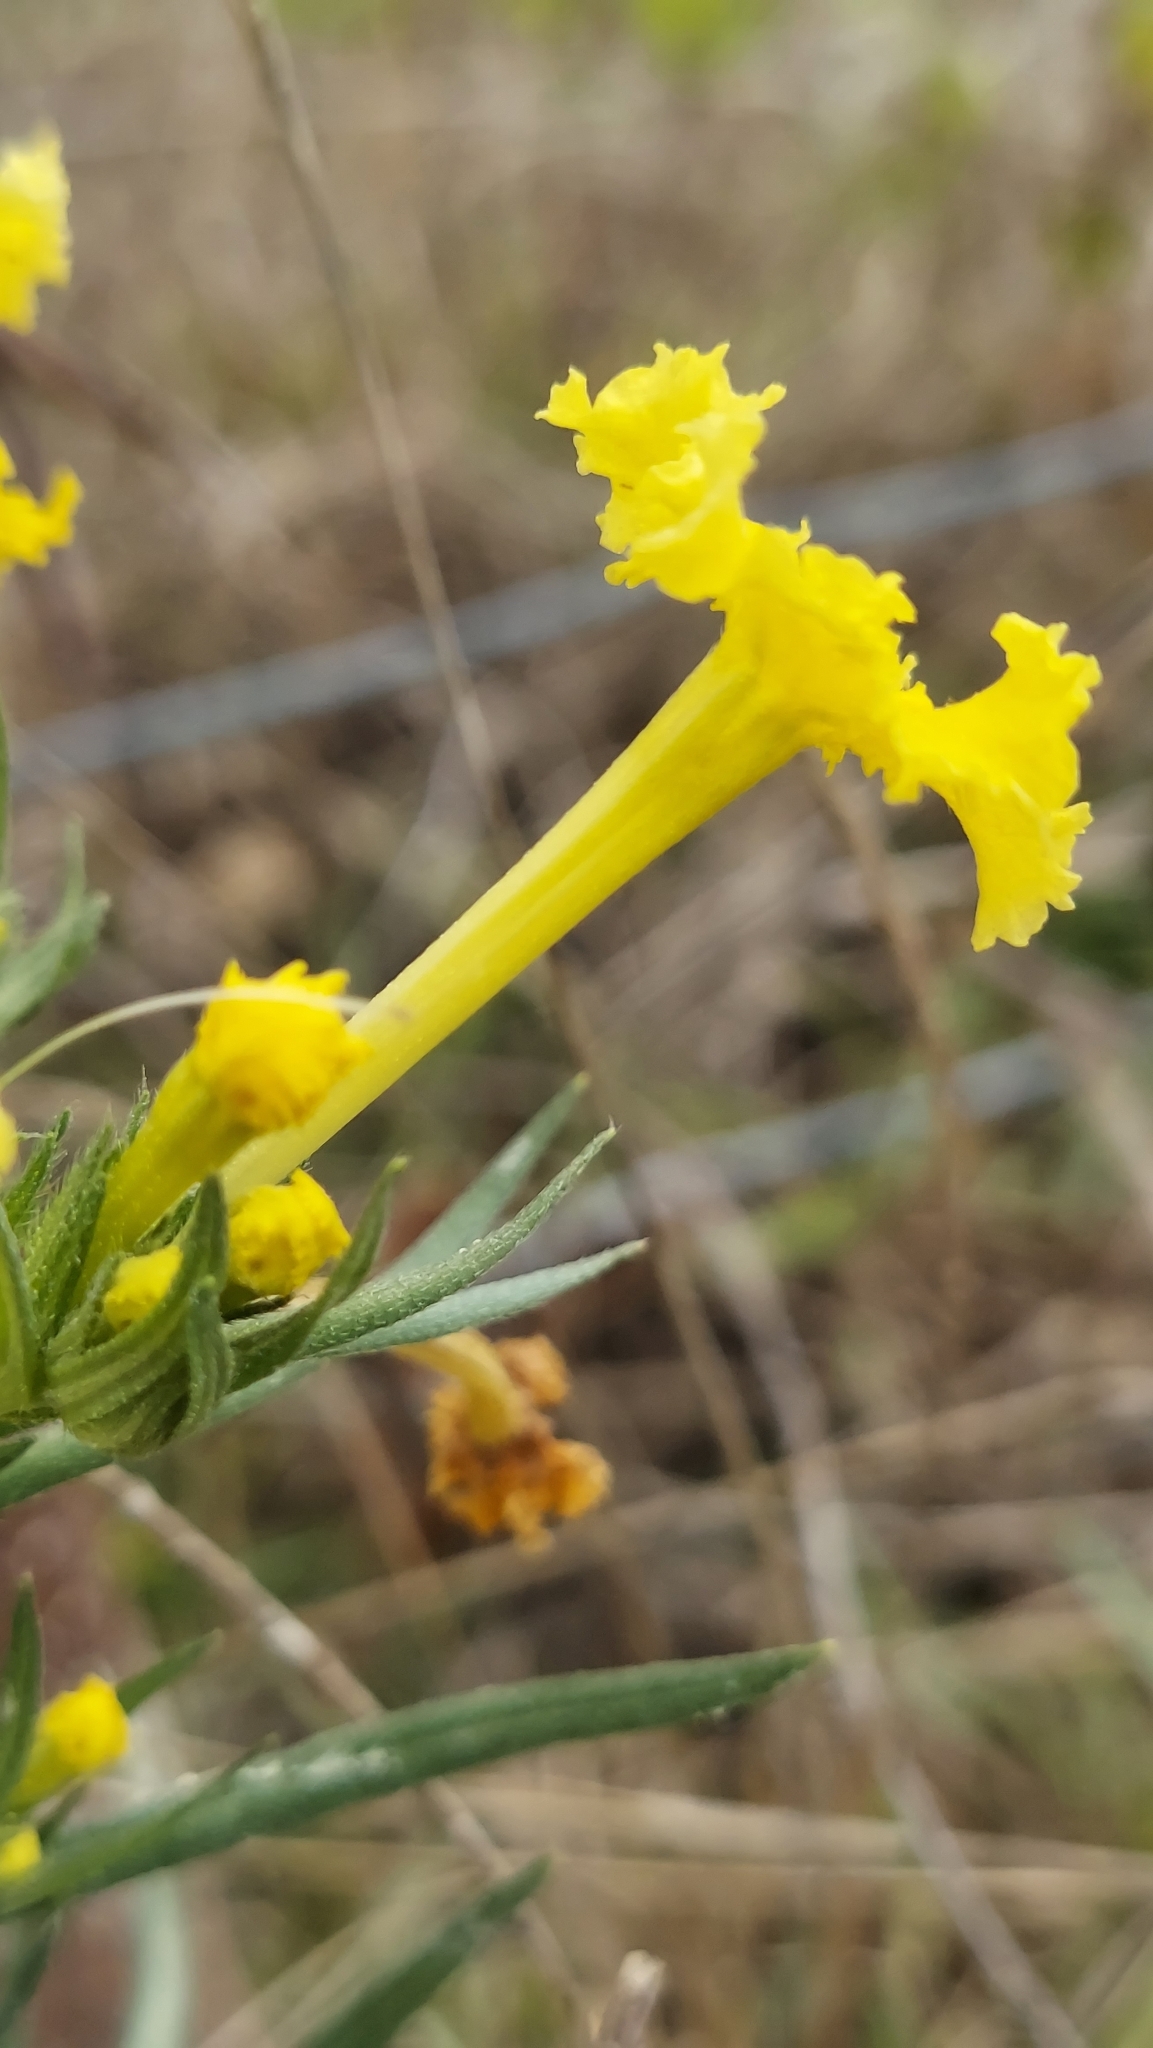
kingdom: Plantae
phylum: Tracheophyta
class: Magnoliopsida
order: Boraginales
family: Boraginaceae
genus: Lithospermum
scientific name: Lithospermum incisum
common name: Fringed gromwell
